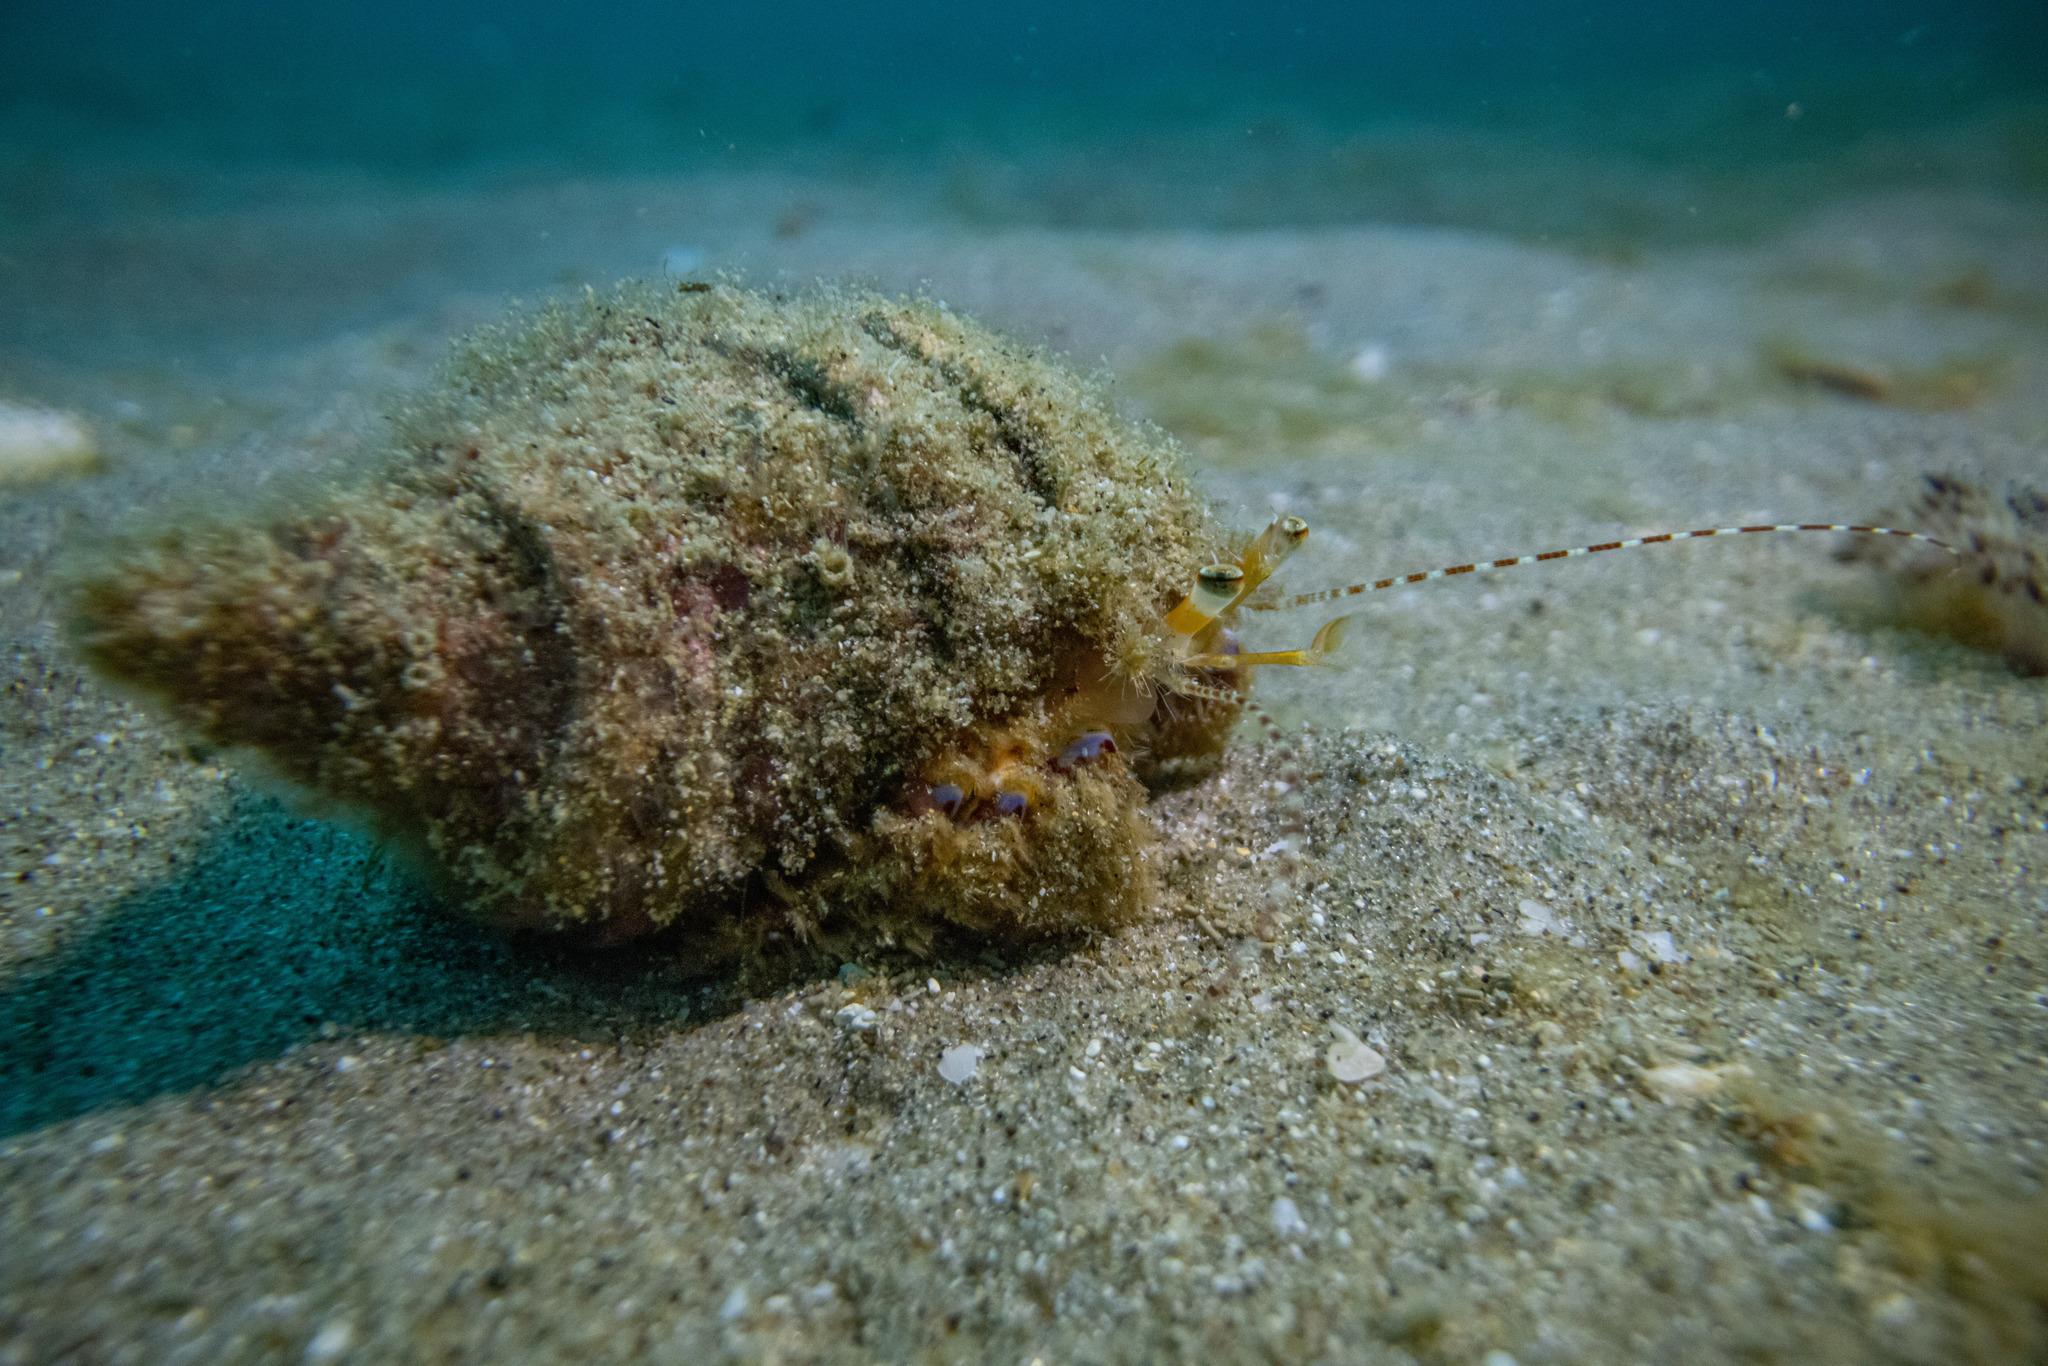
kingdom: Animalia
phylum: Arthropoda
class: Malacostraca
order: Decapoda
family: Paguridae
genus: Diacanthurus
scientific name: Diacanthurus spinulimanus
